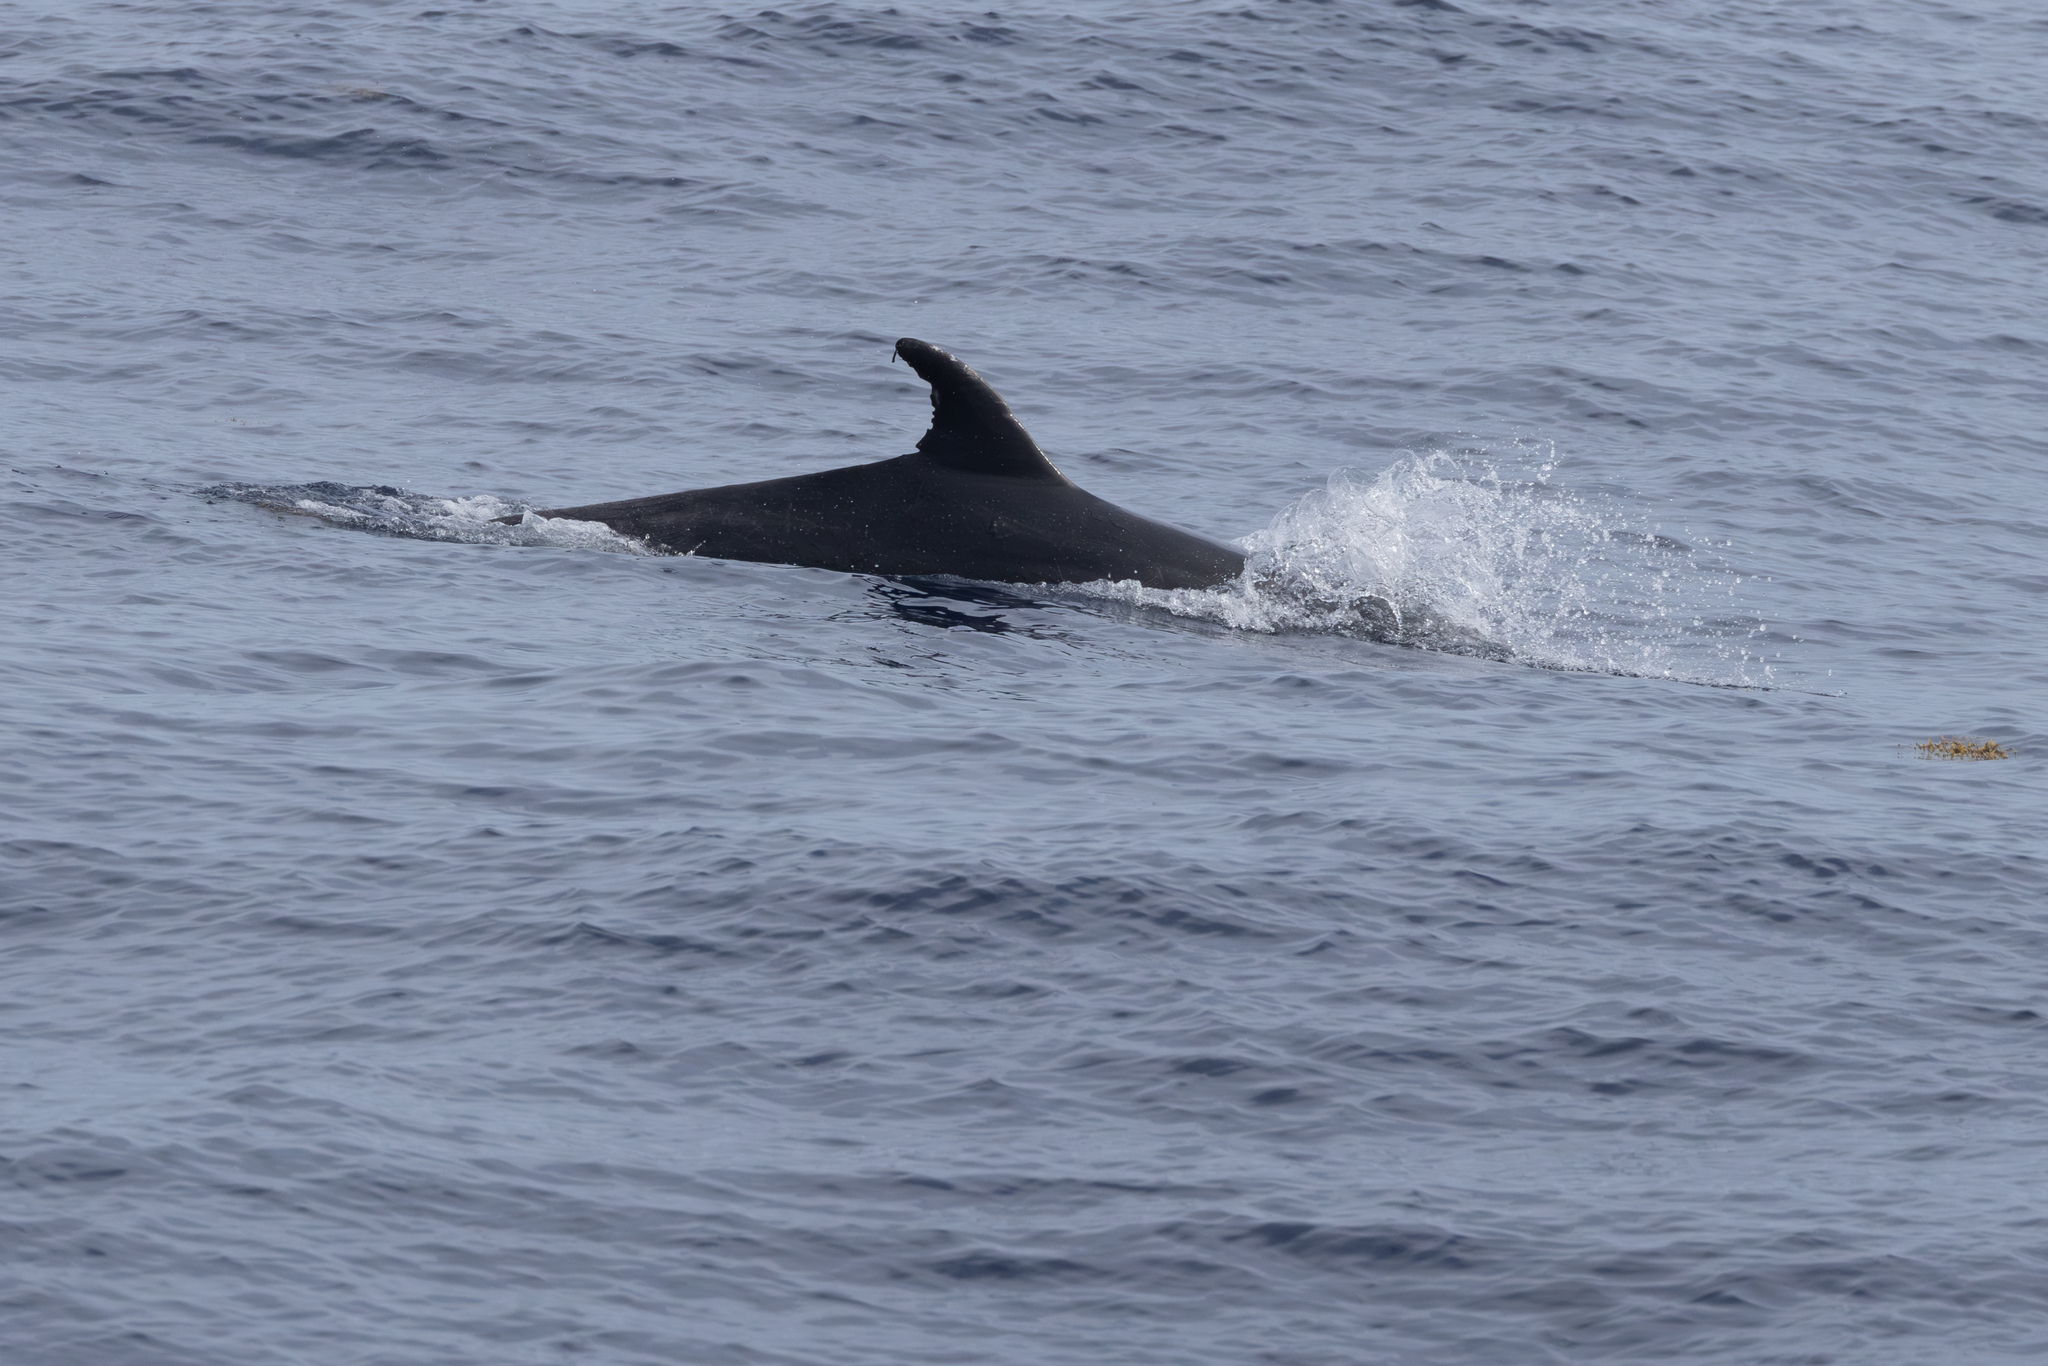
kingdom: Animalia
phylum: Chordata
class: Mammalia
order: Cetacea
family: Delphinidae
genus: Tursiops
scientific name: Tursiops truncatus
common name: Bottlenose dolphin
